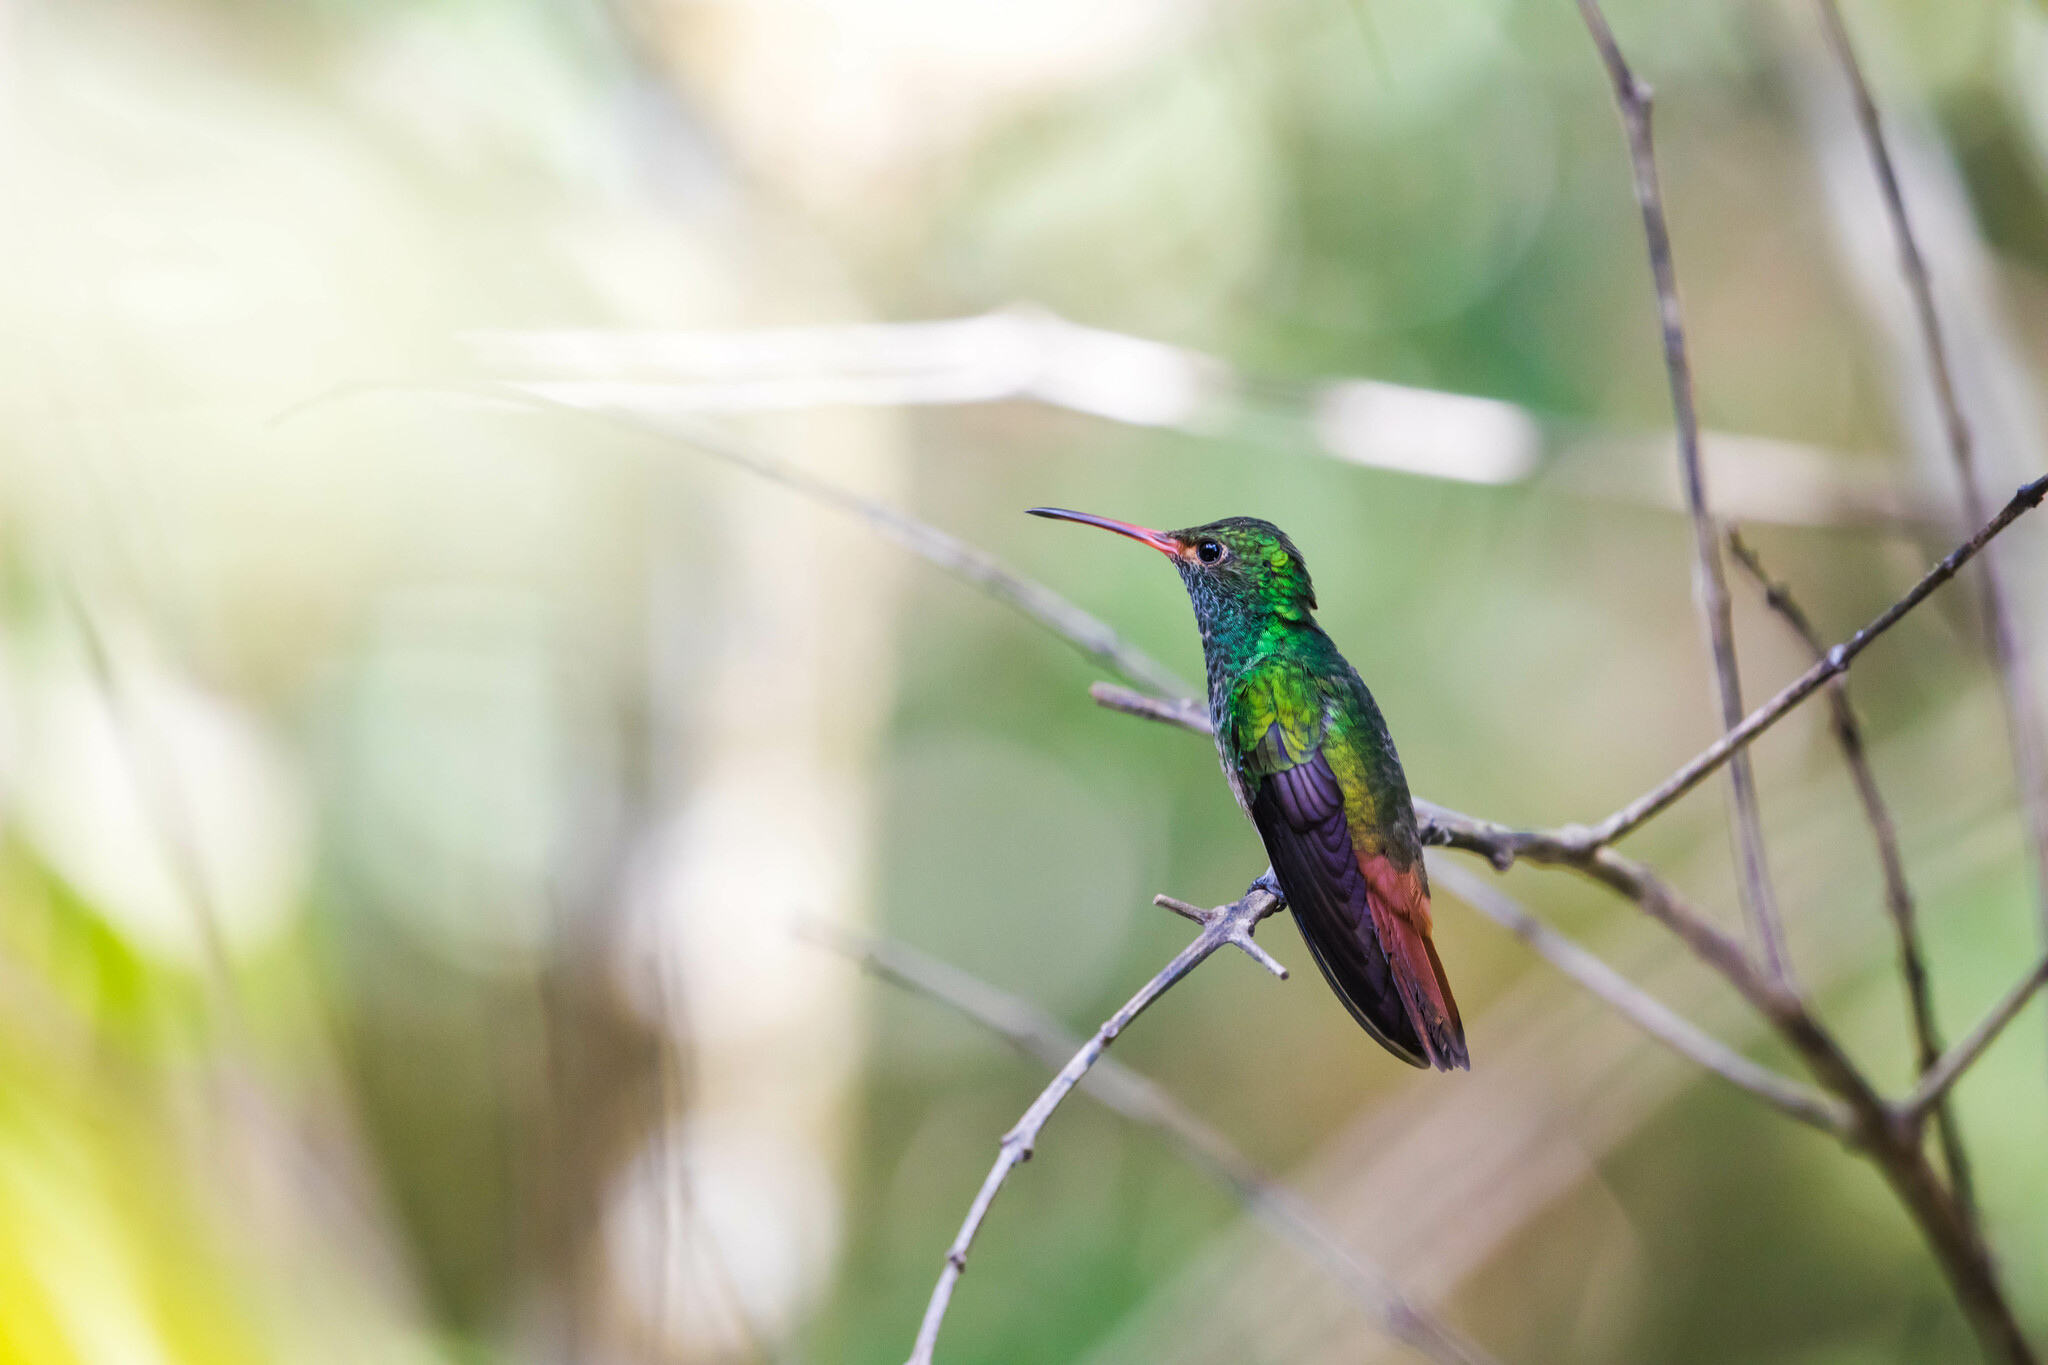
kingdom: Animalia
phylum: Chordata
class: Aves
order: Apodiformes
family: Trochilidae
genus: Amazilia
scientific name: Amazilia tzacatl
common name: Rufous-tailed hummingbird
